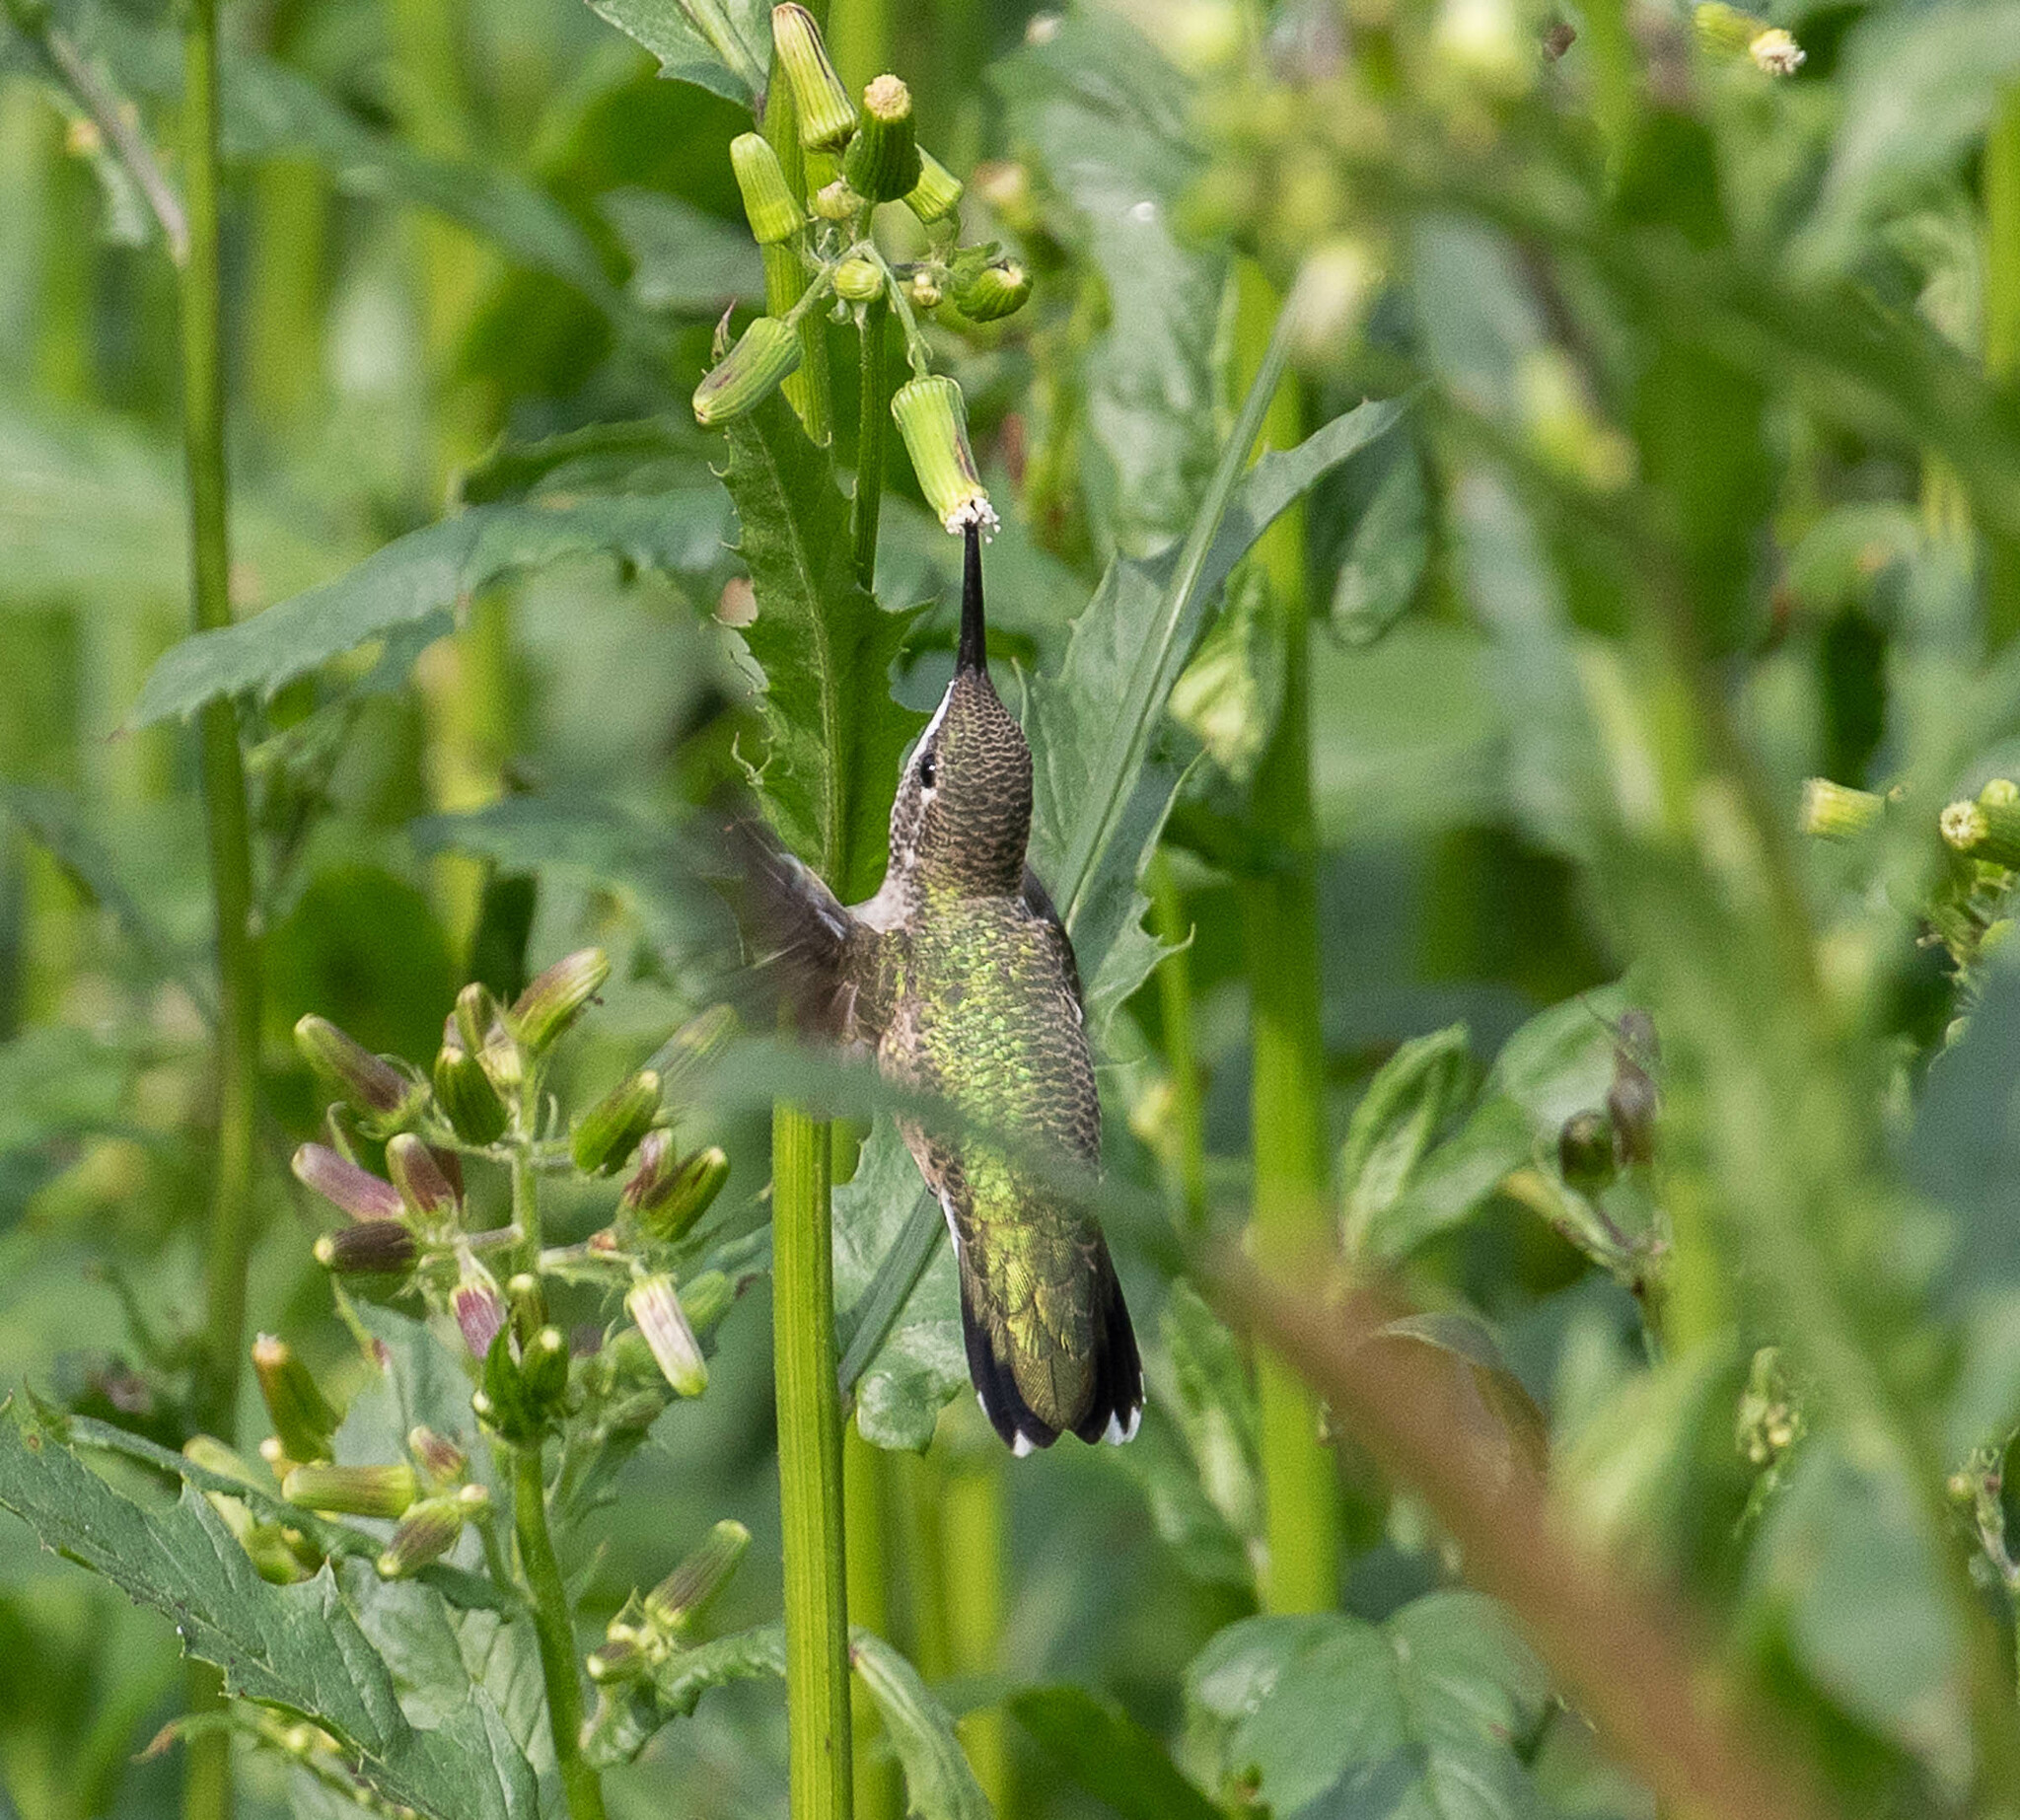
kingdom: Animalia
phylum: Chordata
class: Aves
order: Apodiformes
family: Trochilidae
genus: Archilochus
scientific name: Archilochus colubris
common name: Ruby-throated hummingbird
